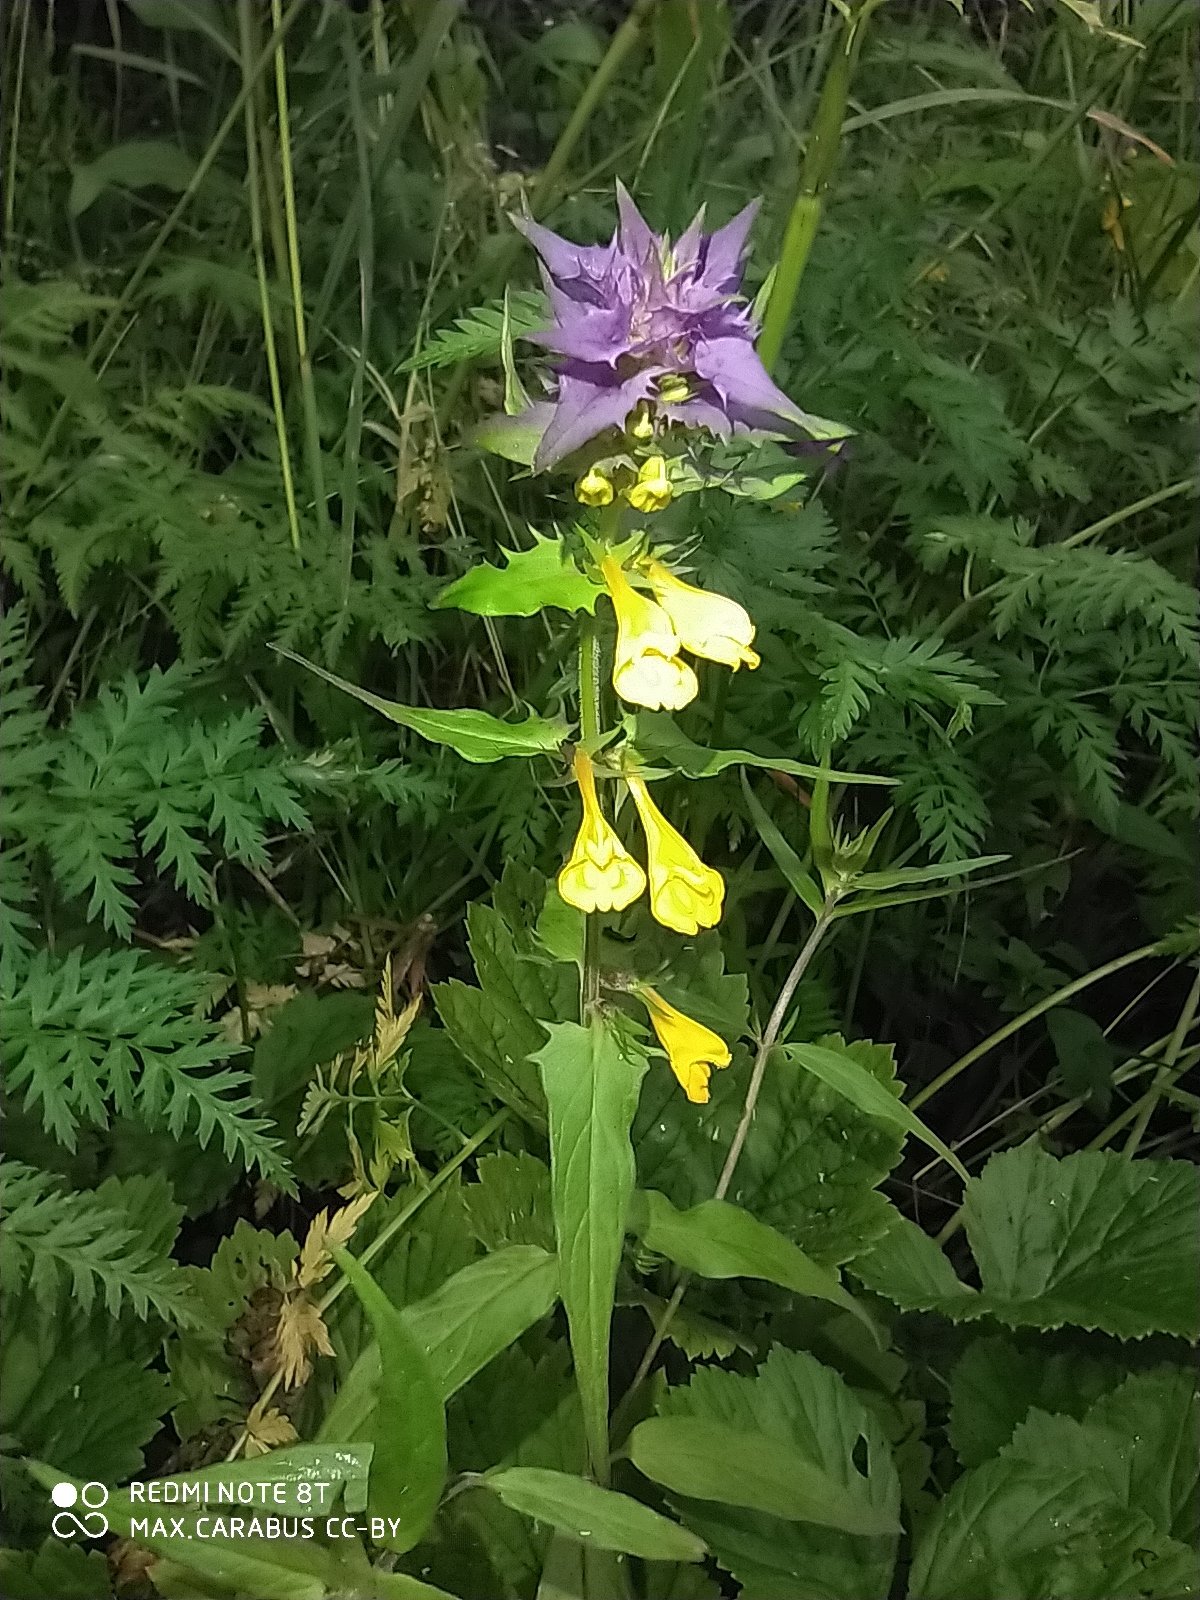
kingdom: Plantae
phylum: Tracheophyta
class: Magnoliopsida
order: Lamiales
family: Orobanchaceae
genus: Melampyrum
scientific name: Melampyrum nemorosum
